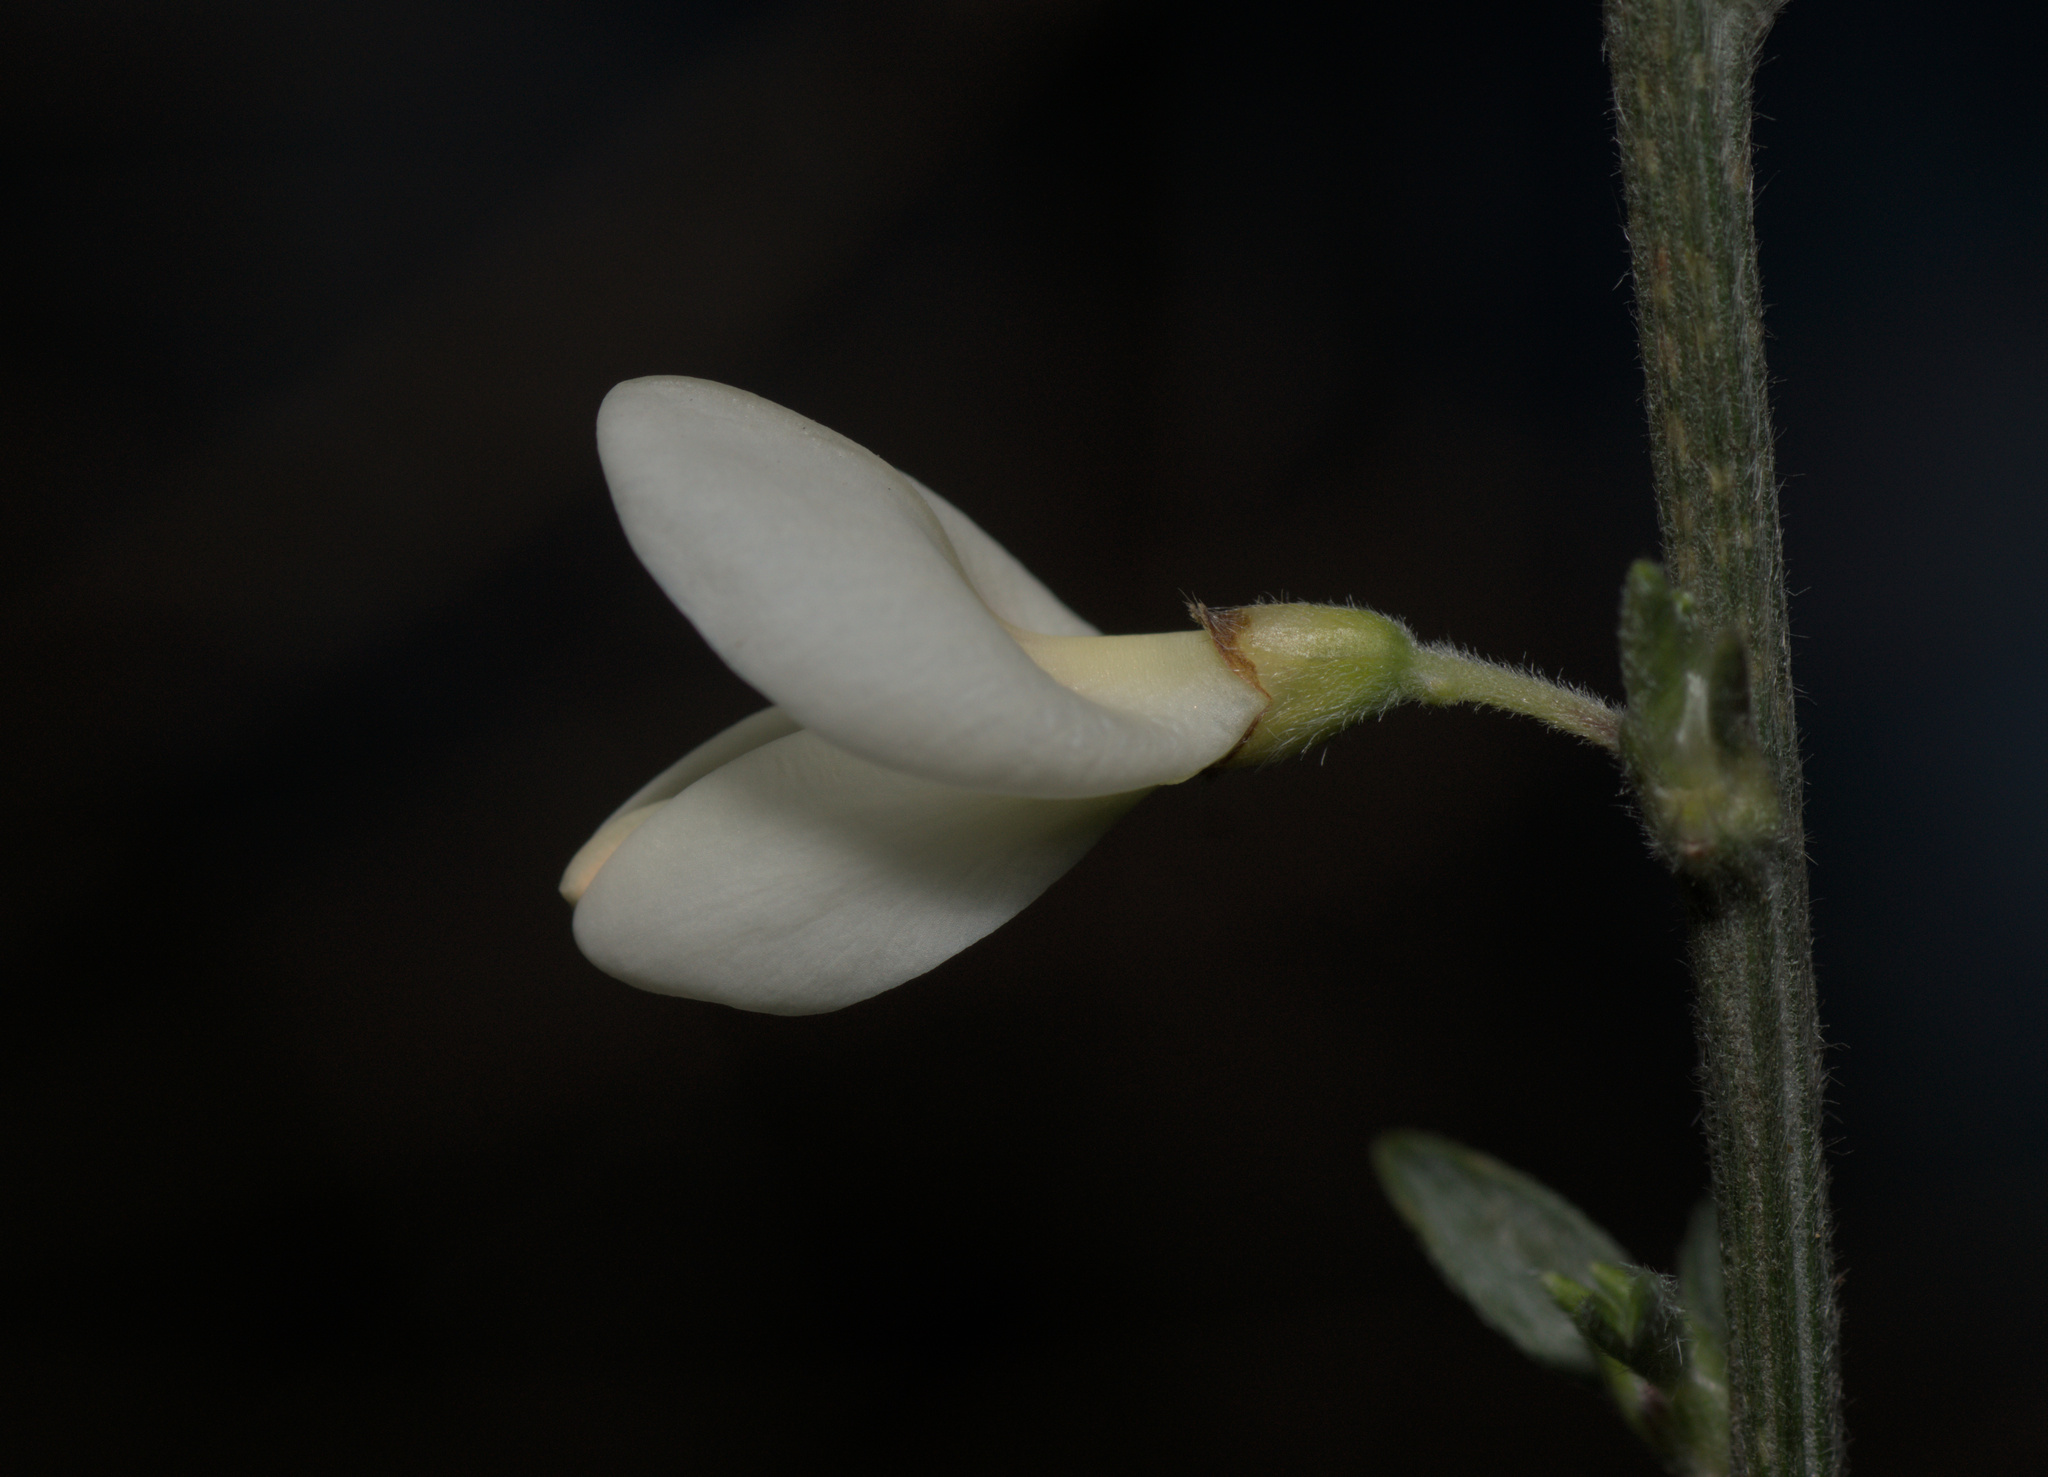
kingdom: Plantae
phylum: Tracheophyta
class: Magnoliopsida
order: Fabales
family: Fabaceae
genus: Cytisus
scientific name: Cytisus multiflorus
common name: White broom
